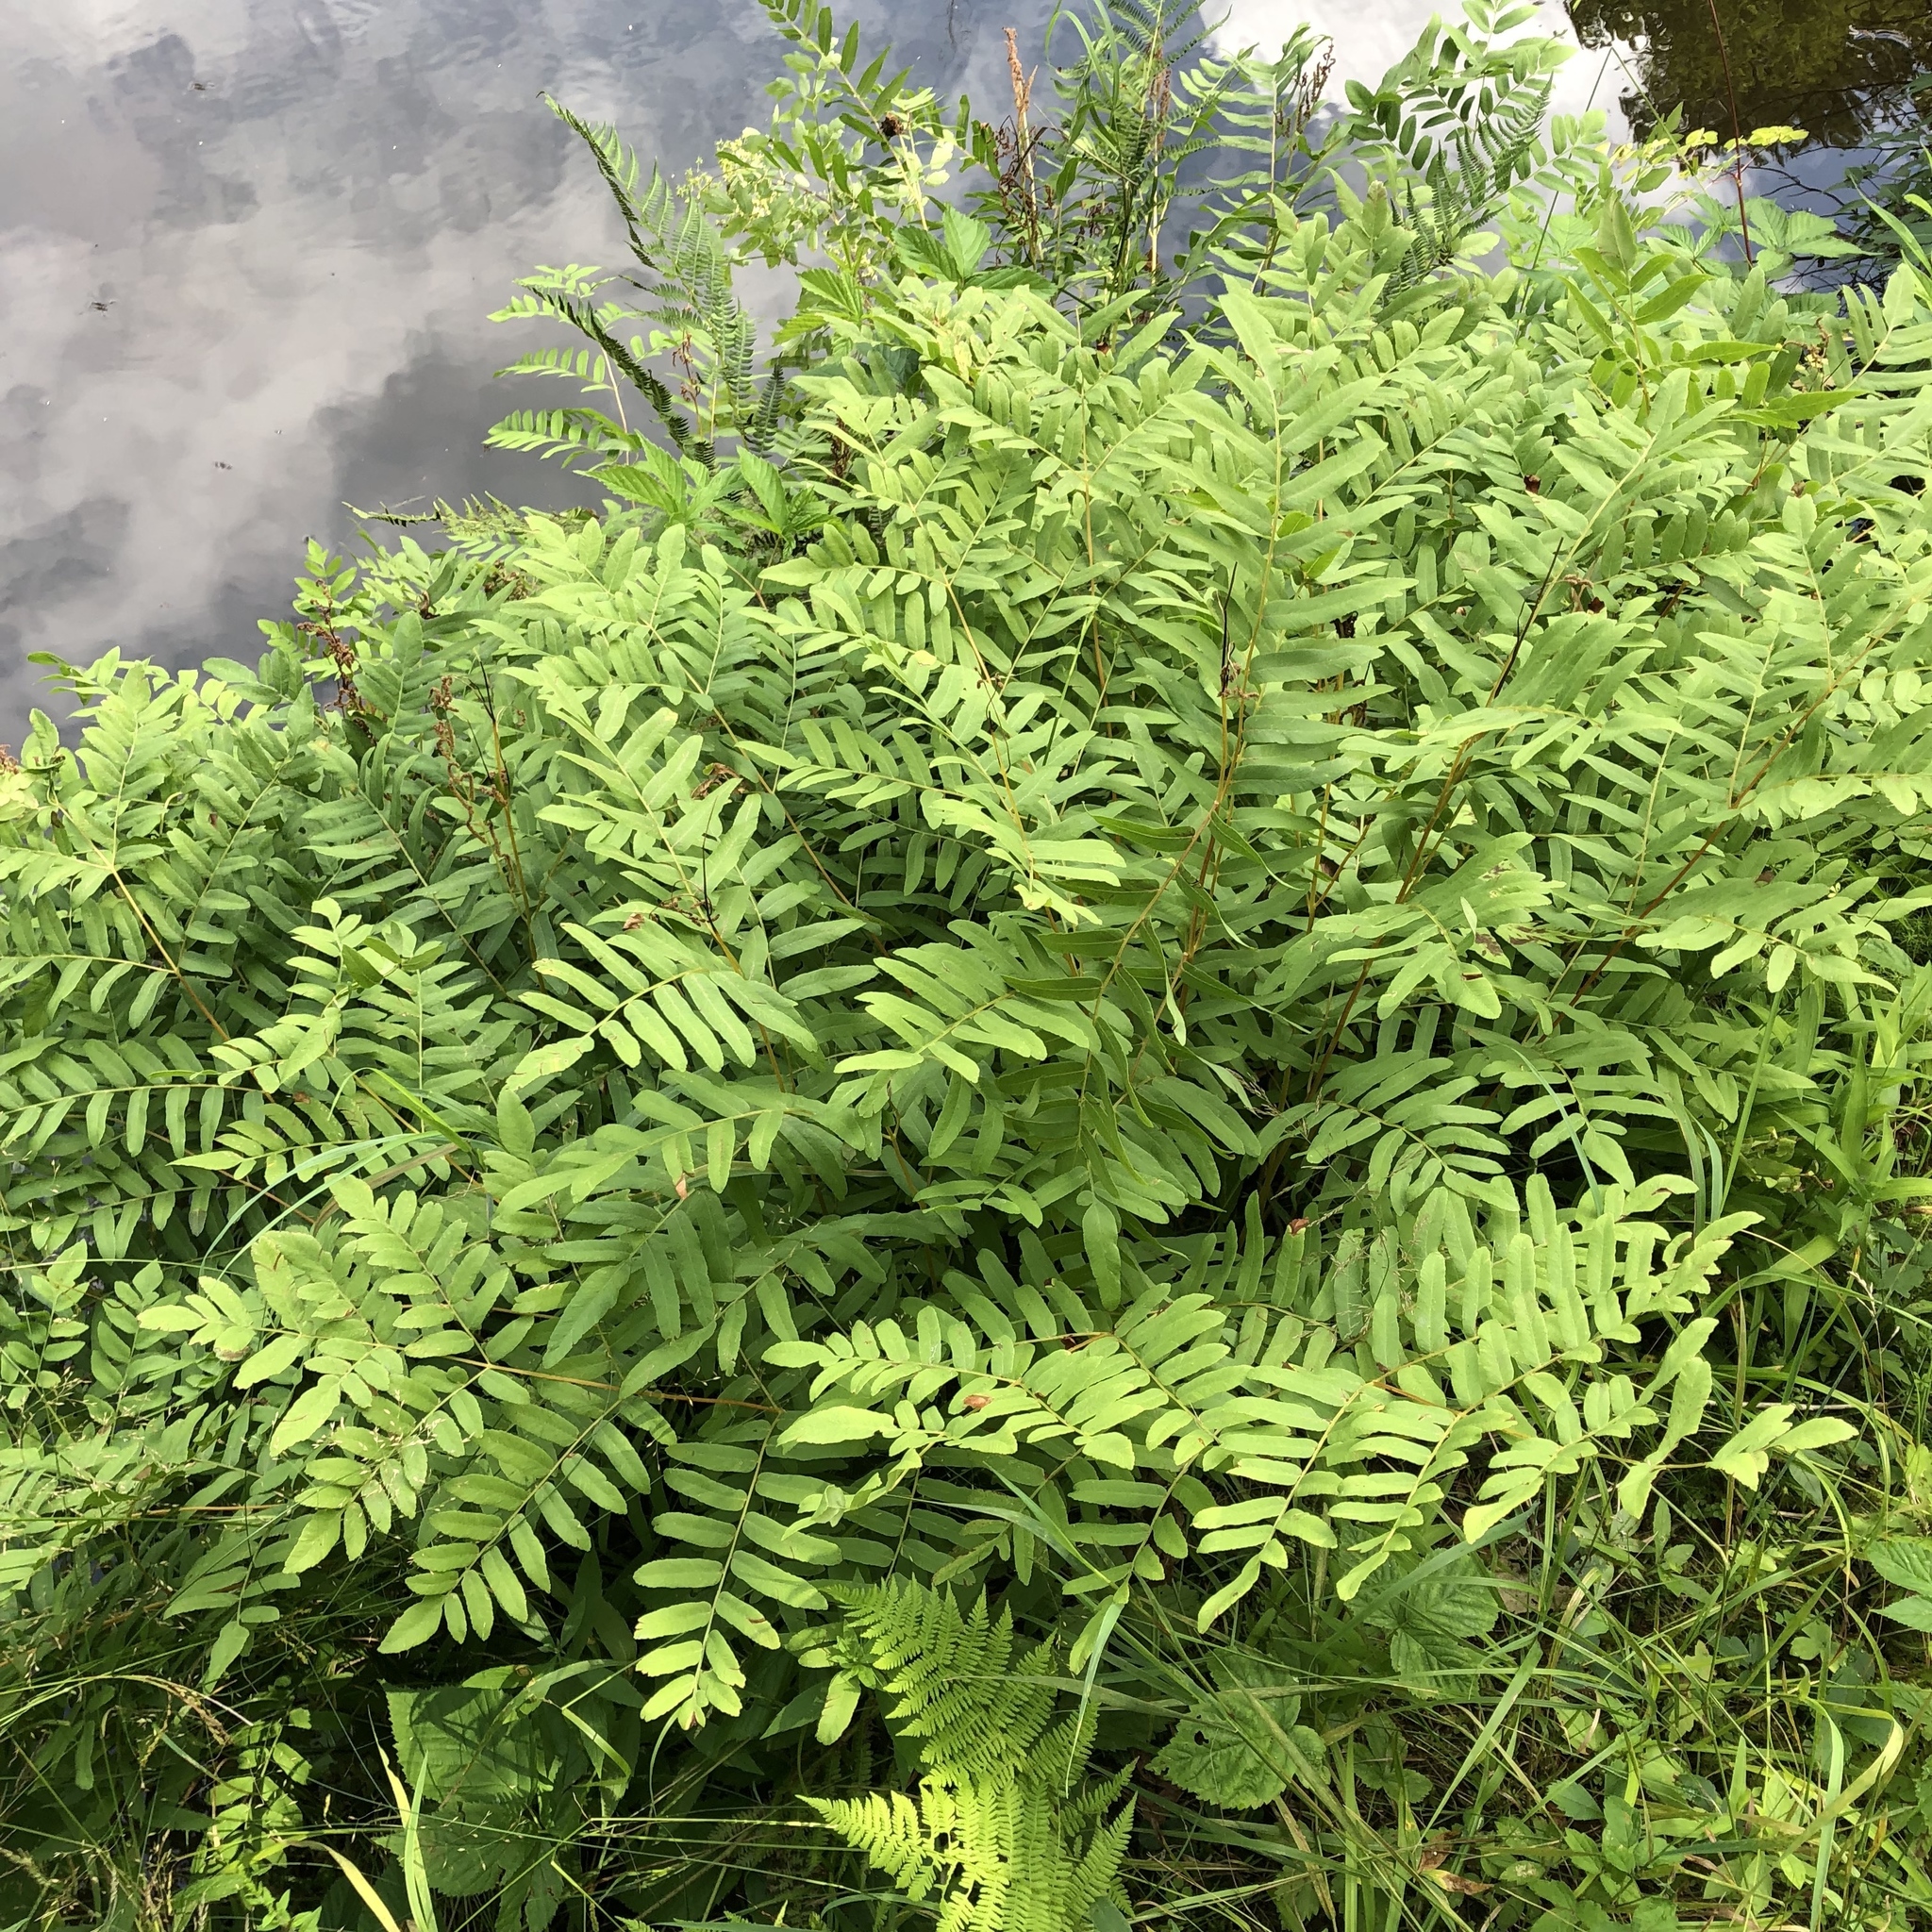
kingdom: Plantae
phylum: Tracheophyta
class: Polypodiopsida
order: Osmundales
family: Osmundaceae
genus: Osmunda
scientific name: Osmunda spectabilis
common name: American royal fern
